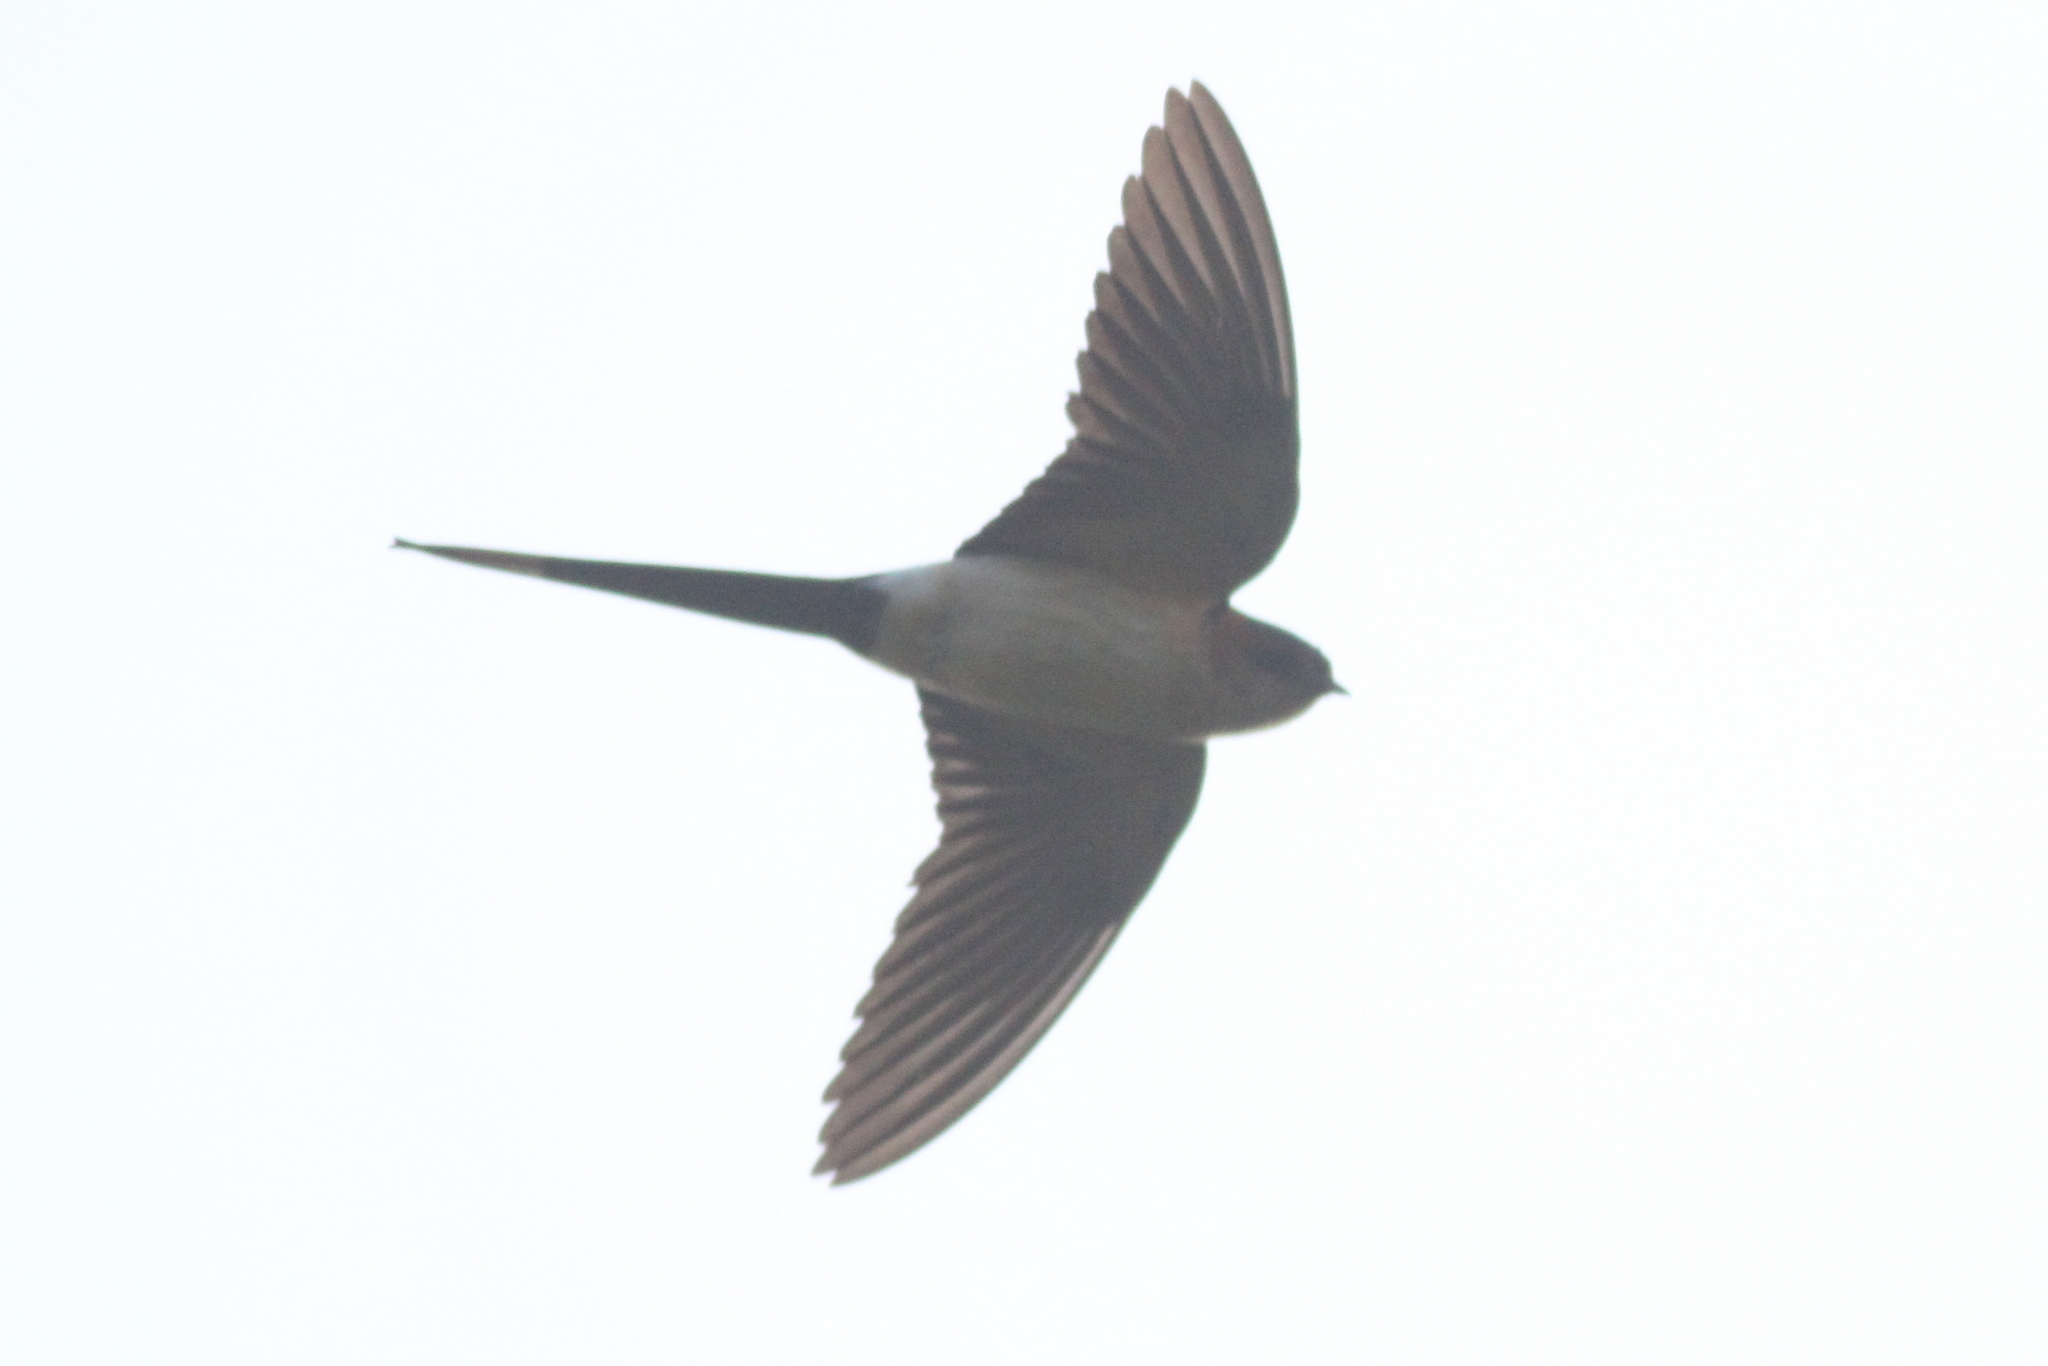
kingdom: Animalia
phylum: Chordata
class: Aves
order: Passeriformes
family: Hirundinidae
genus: Cecropis
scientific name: Cecropis daurica
